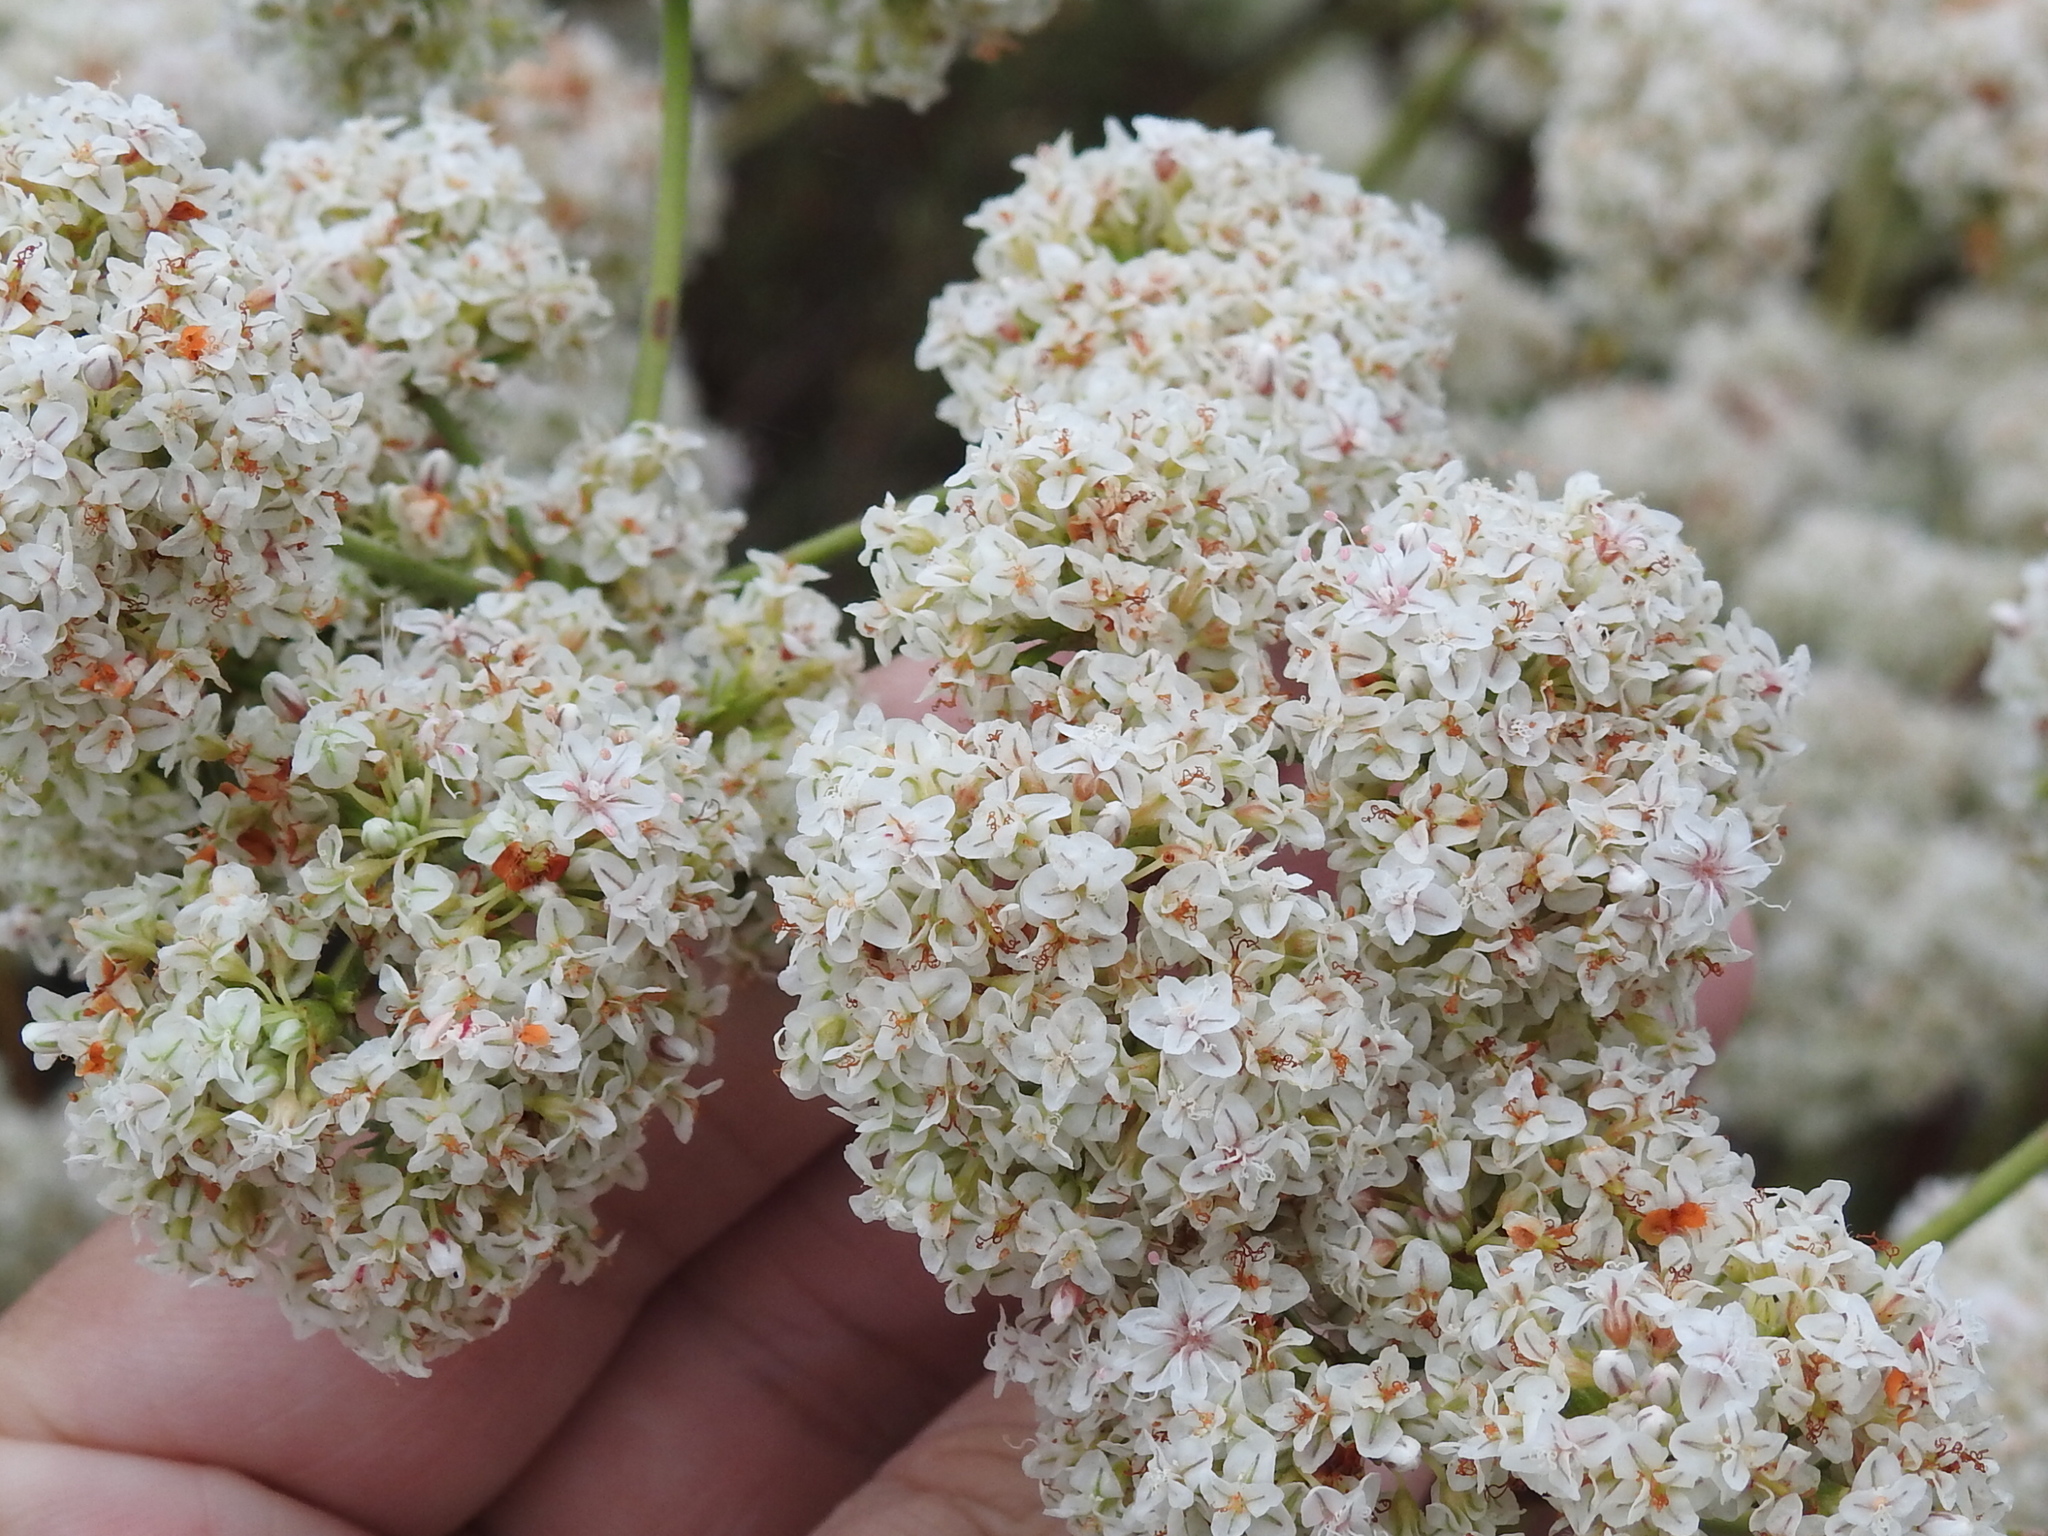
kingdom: Plantae
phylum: Tracheophyta
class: Magnoliopsida
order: Caryophyllales
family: Polygonaceae
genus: Eriogonum
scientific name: Eriogonum fasciculatum
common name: California wild buckwheat
